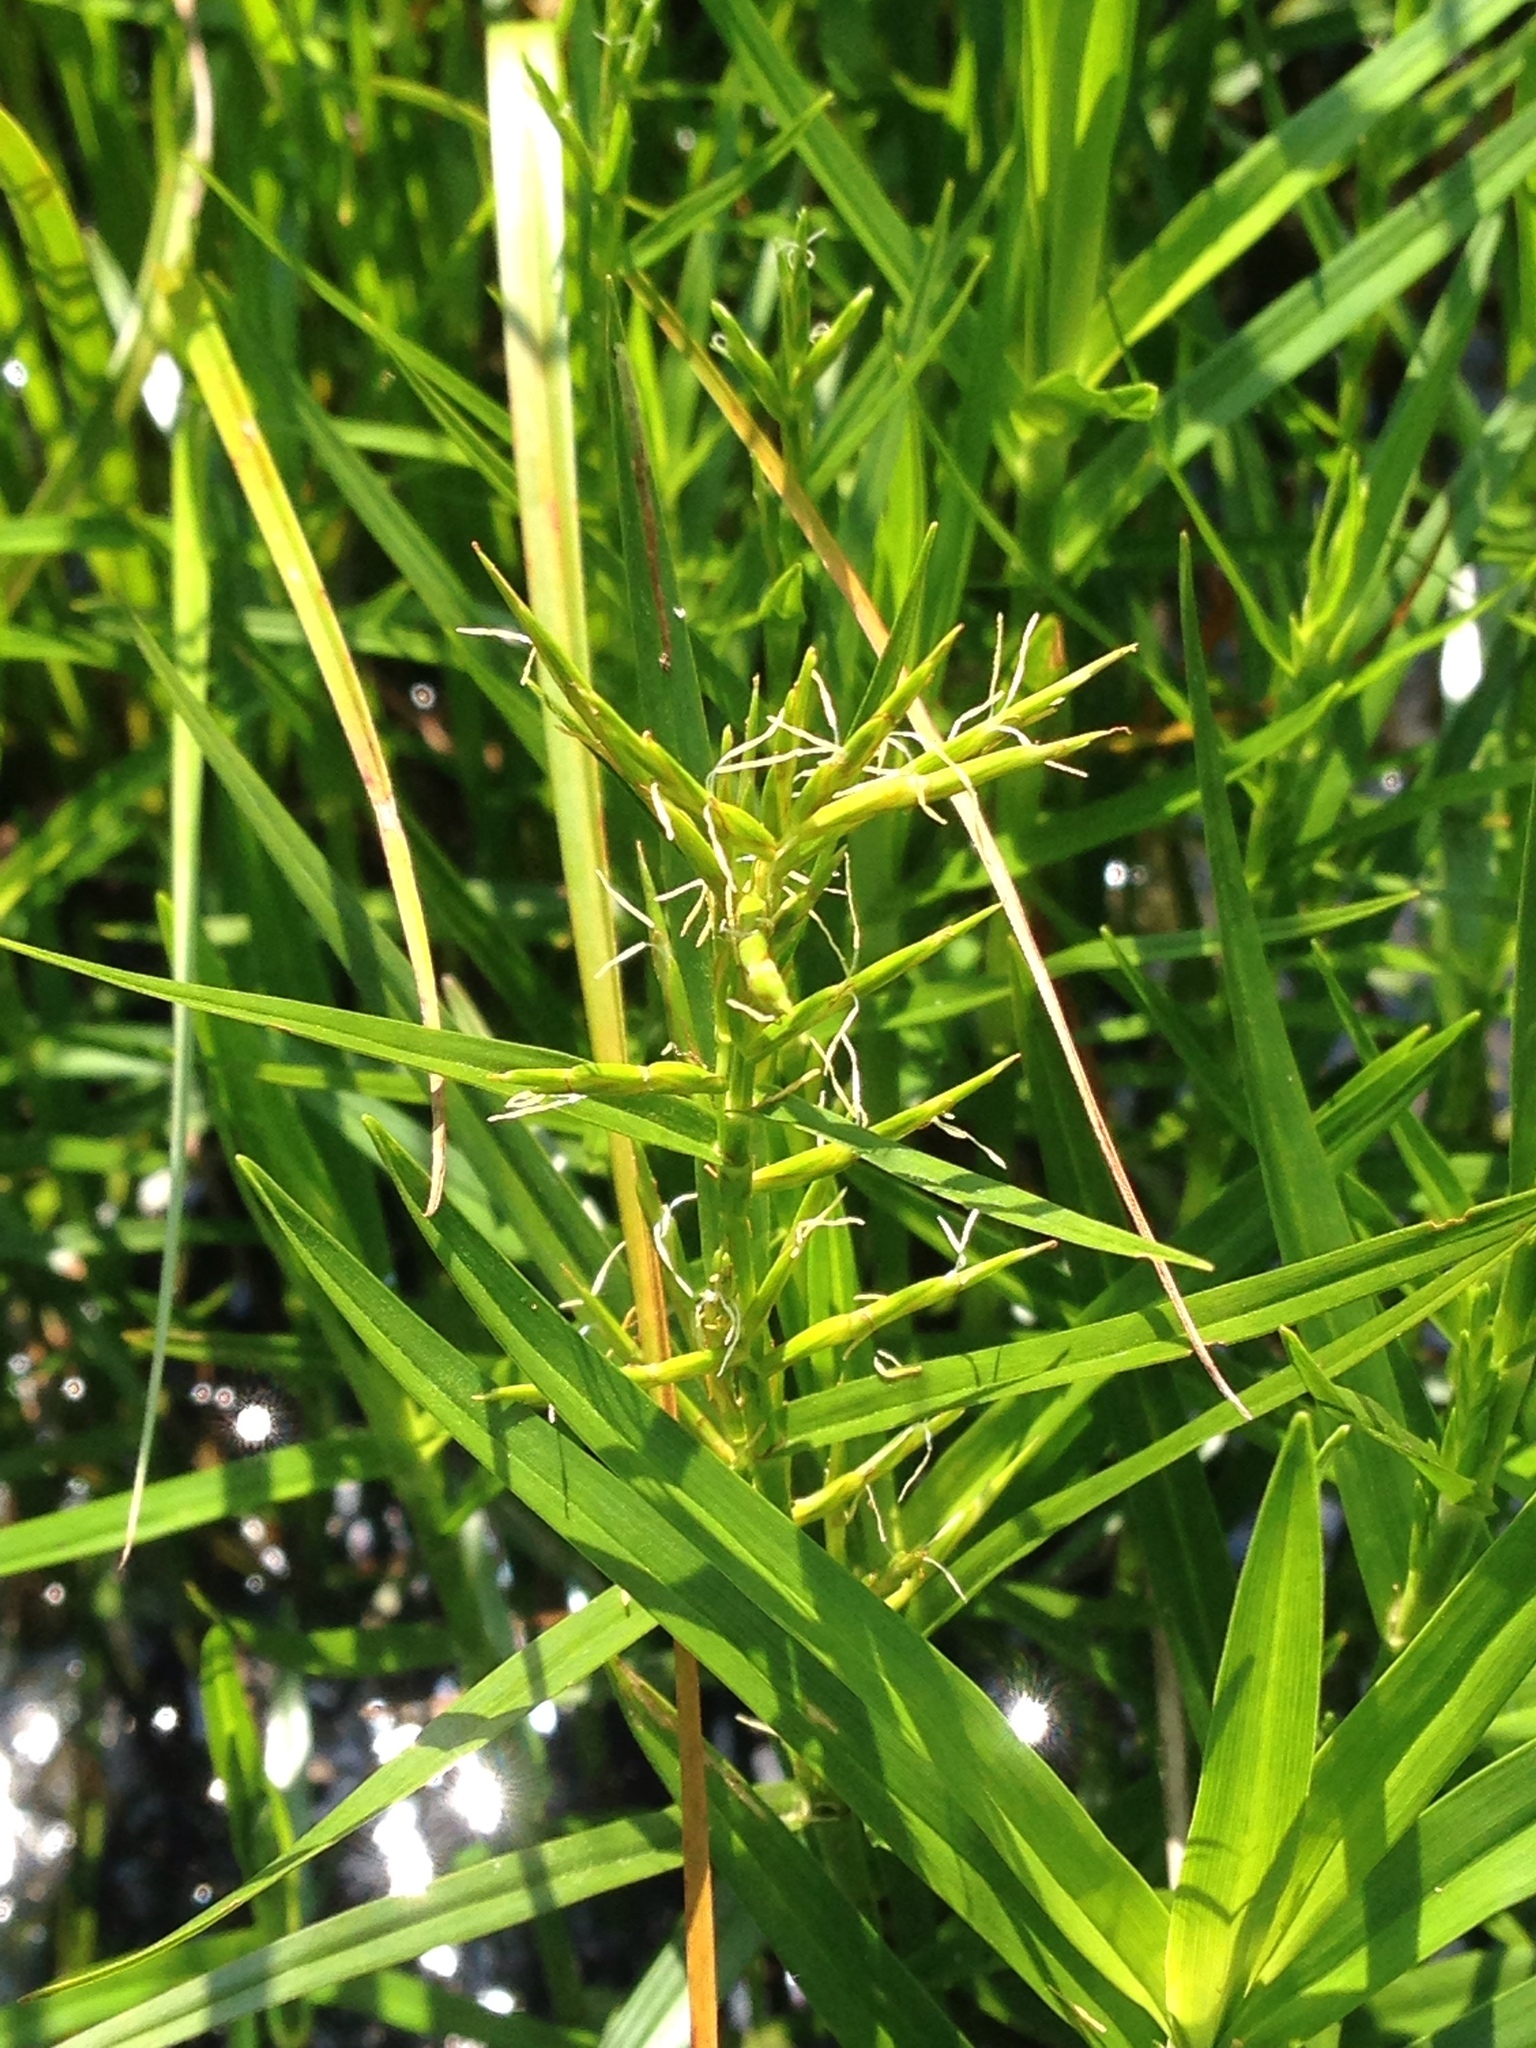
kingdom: Plantae
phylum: Tracheophyta
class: Liliopsida
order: Poales
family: Cyperaceae
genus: Dulichium
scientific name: Dulichium arundinaceum
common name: Three-way sedge
